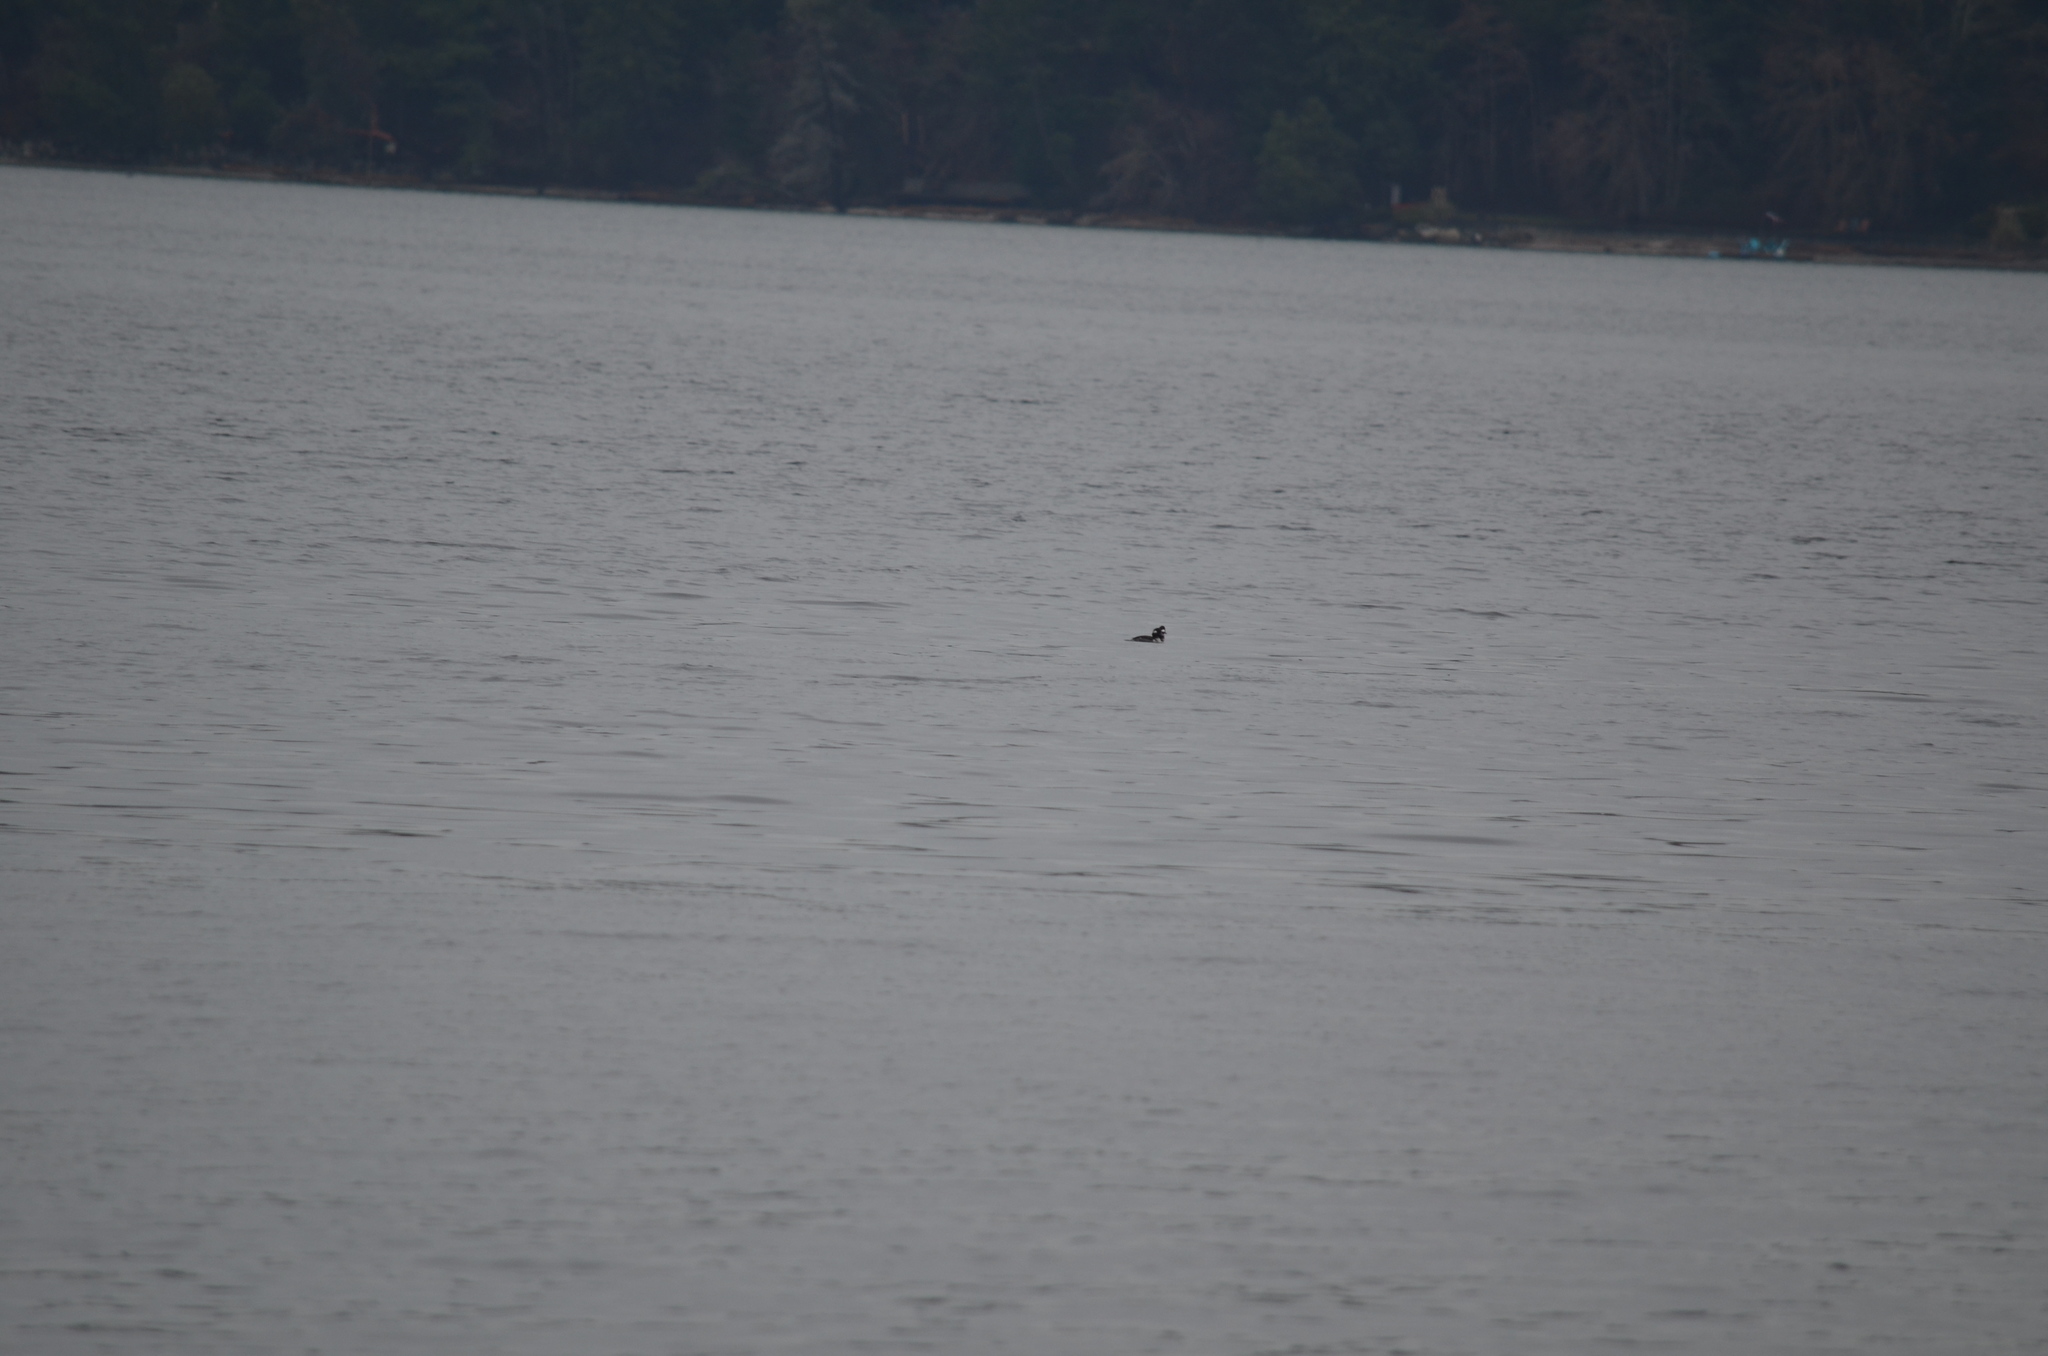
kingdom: Animalia
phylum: Chordata
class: Aves
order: Anseriformes
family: Anatidae
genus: Bucephala
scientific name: Bucephala albeola
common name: Bufflehead
